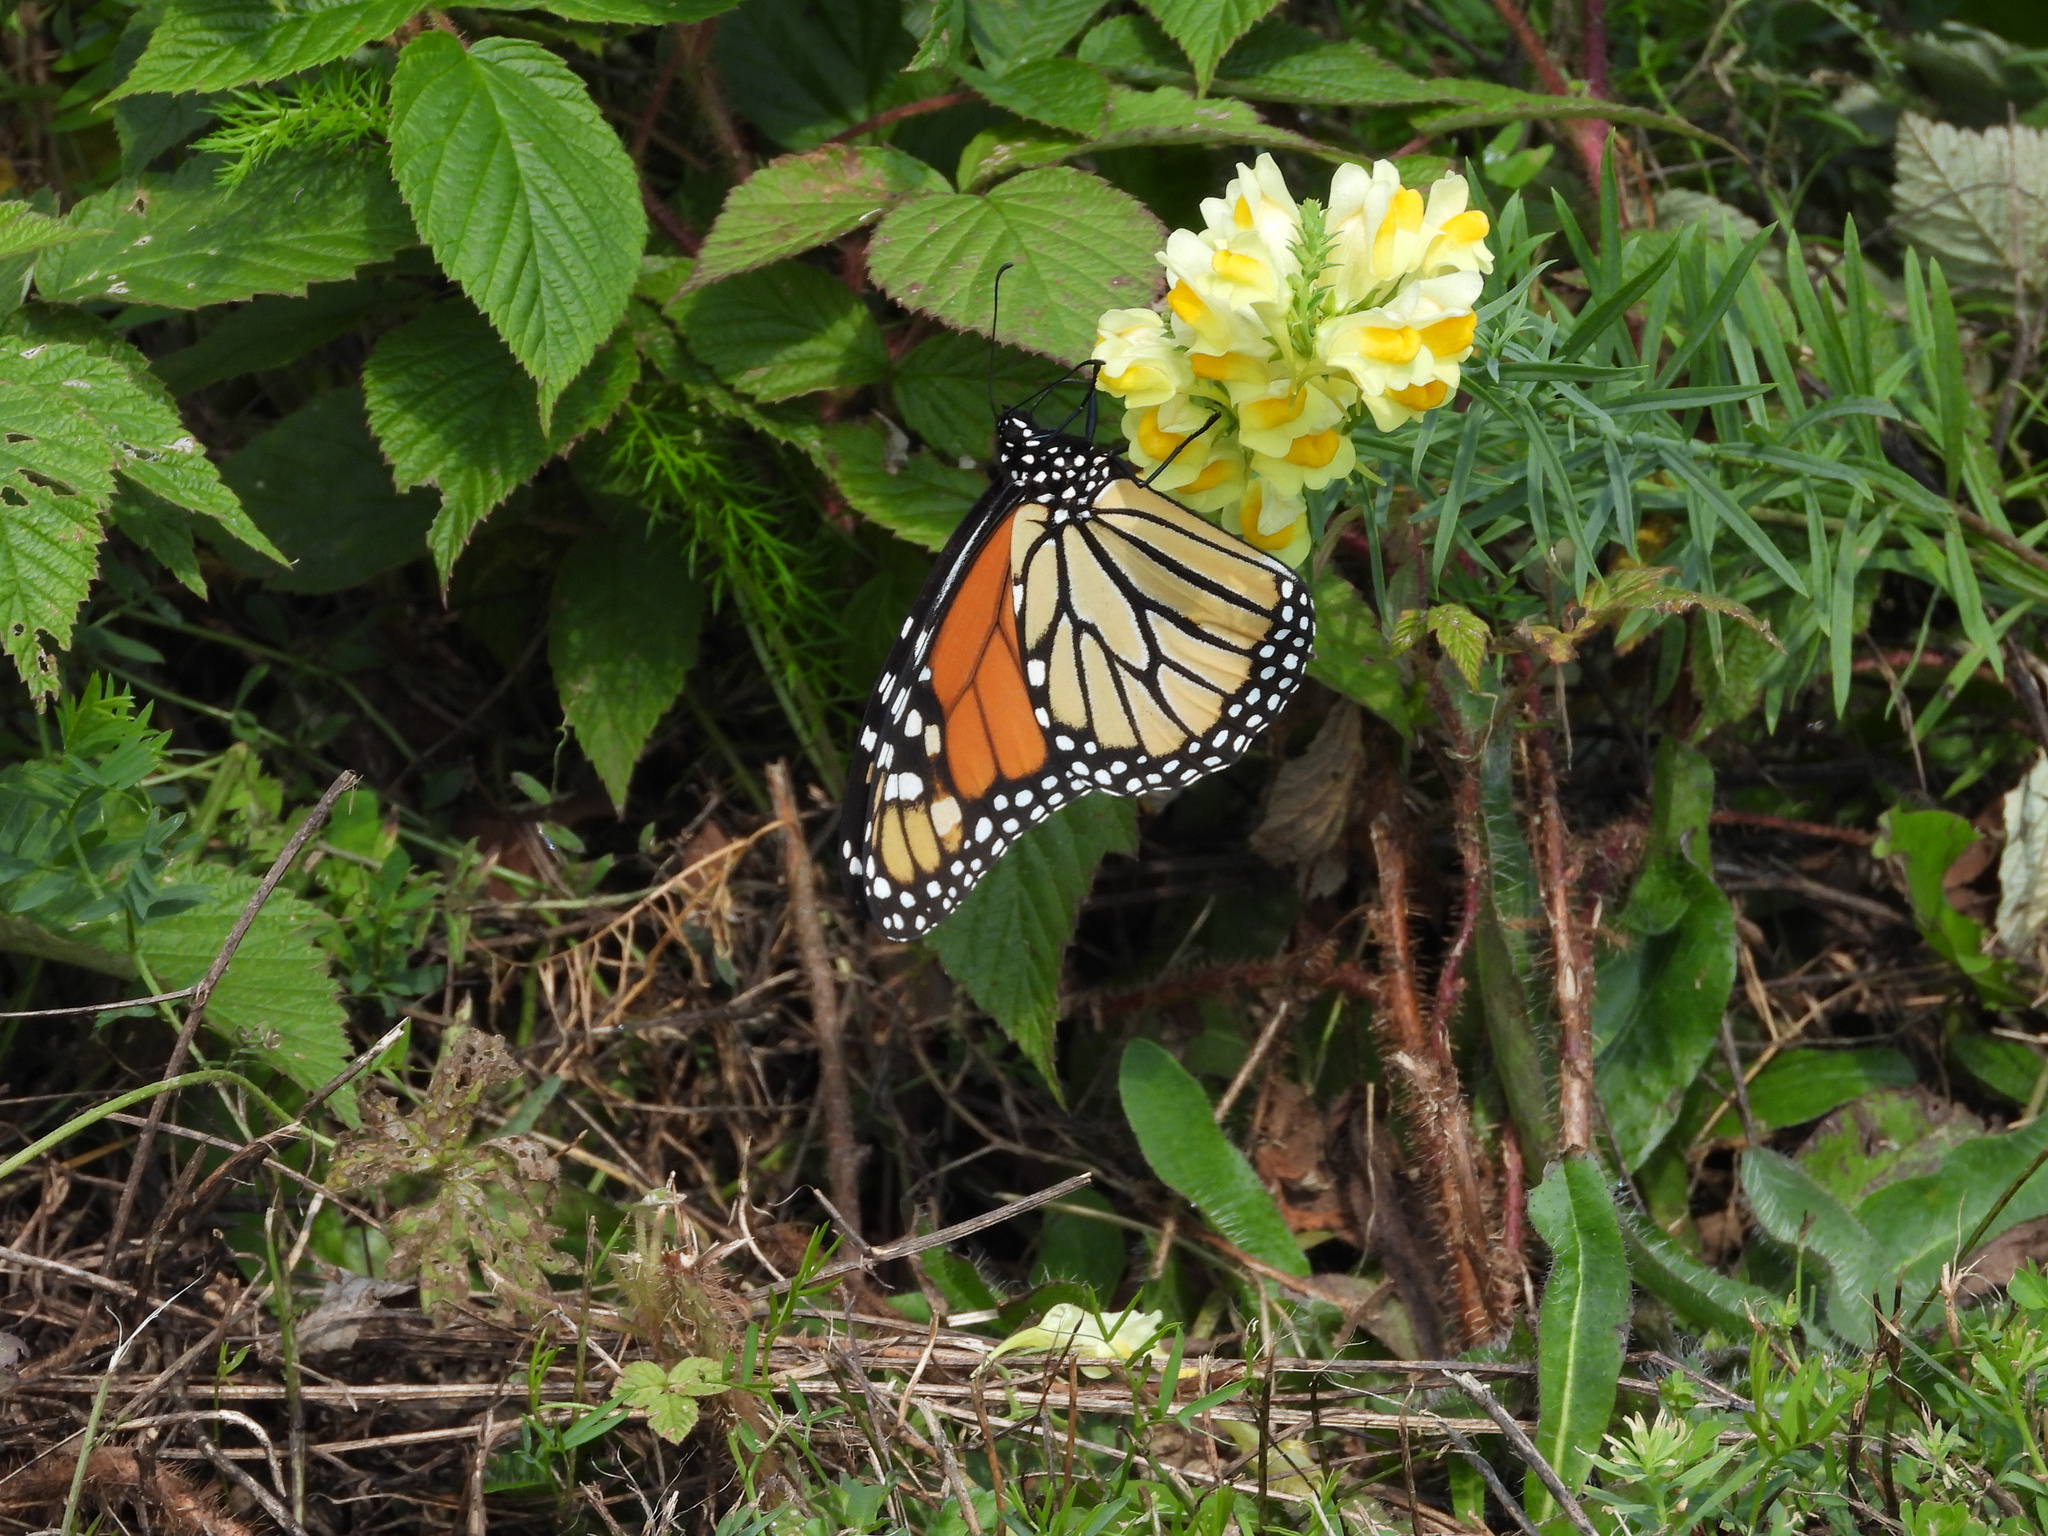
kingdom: Animalia
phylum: Arthropoda
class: Insecta
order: Lepidoptera
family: Nymphalidae
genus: Danaus
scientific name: Danaus plexippus
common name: Monarch
